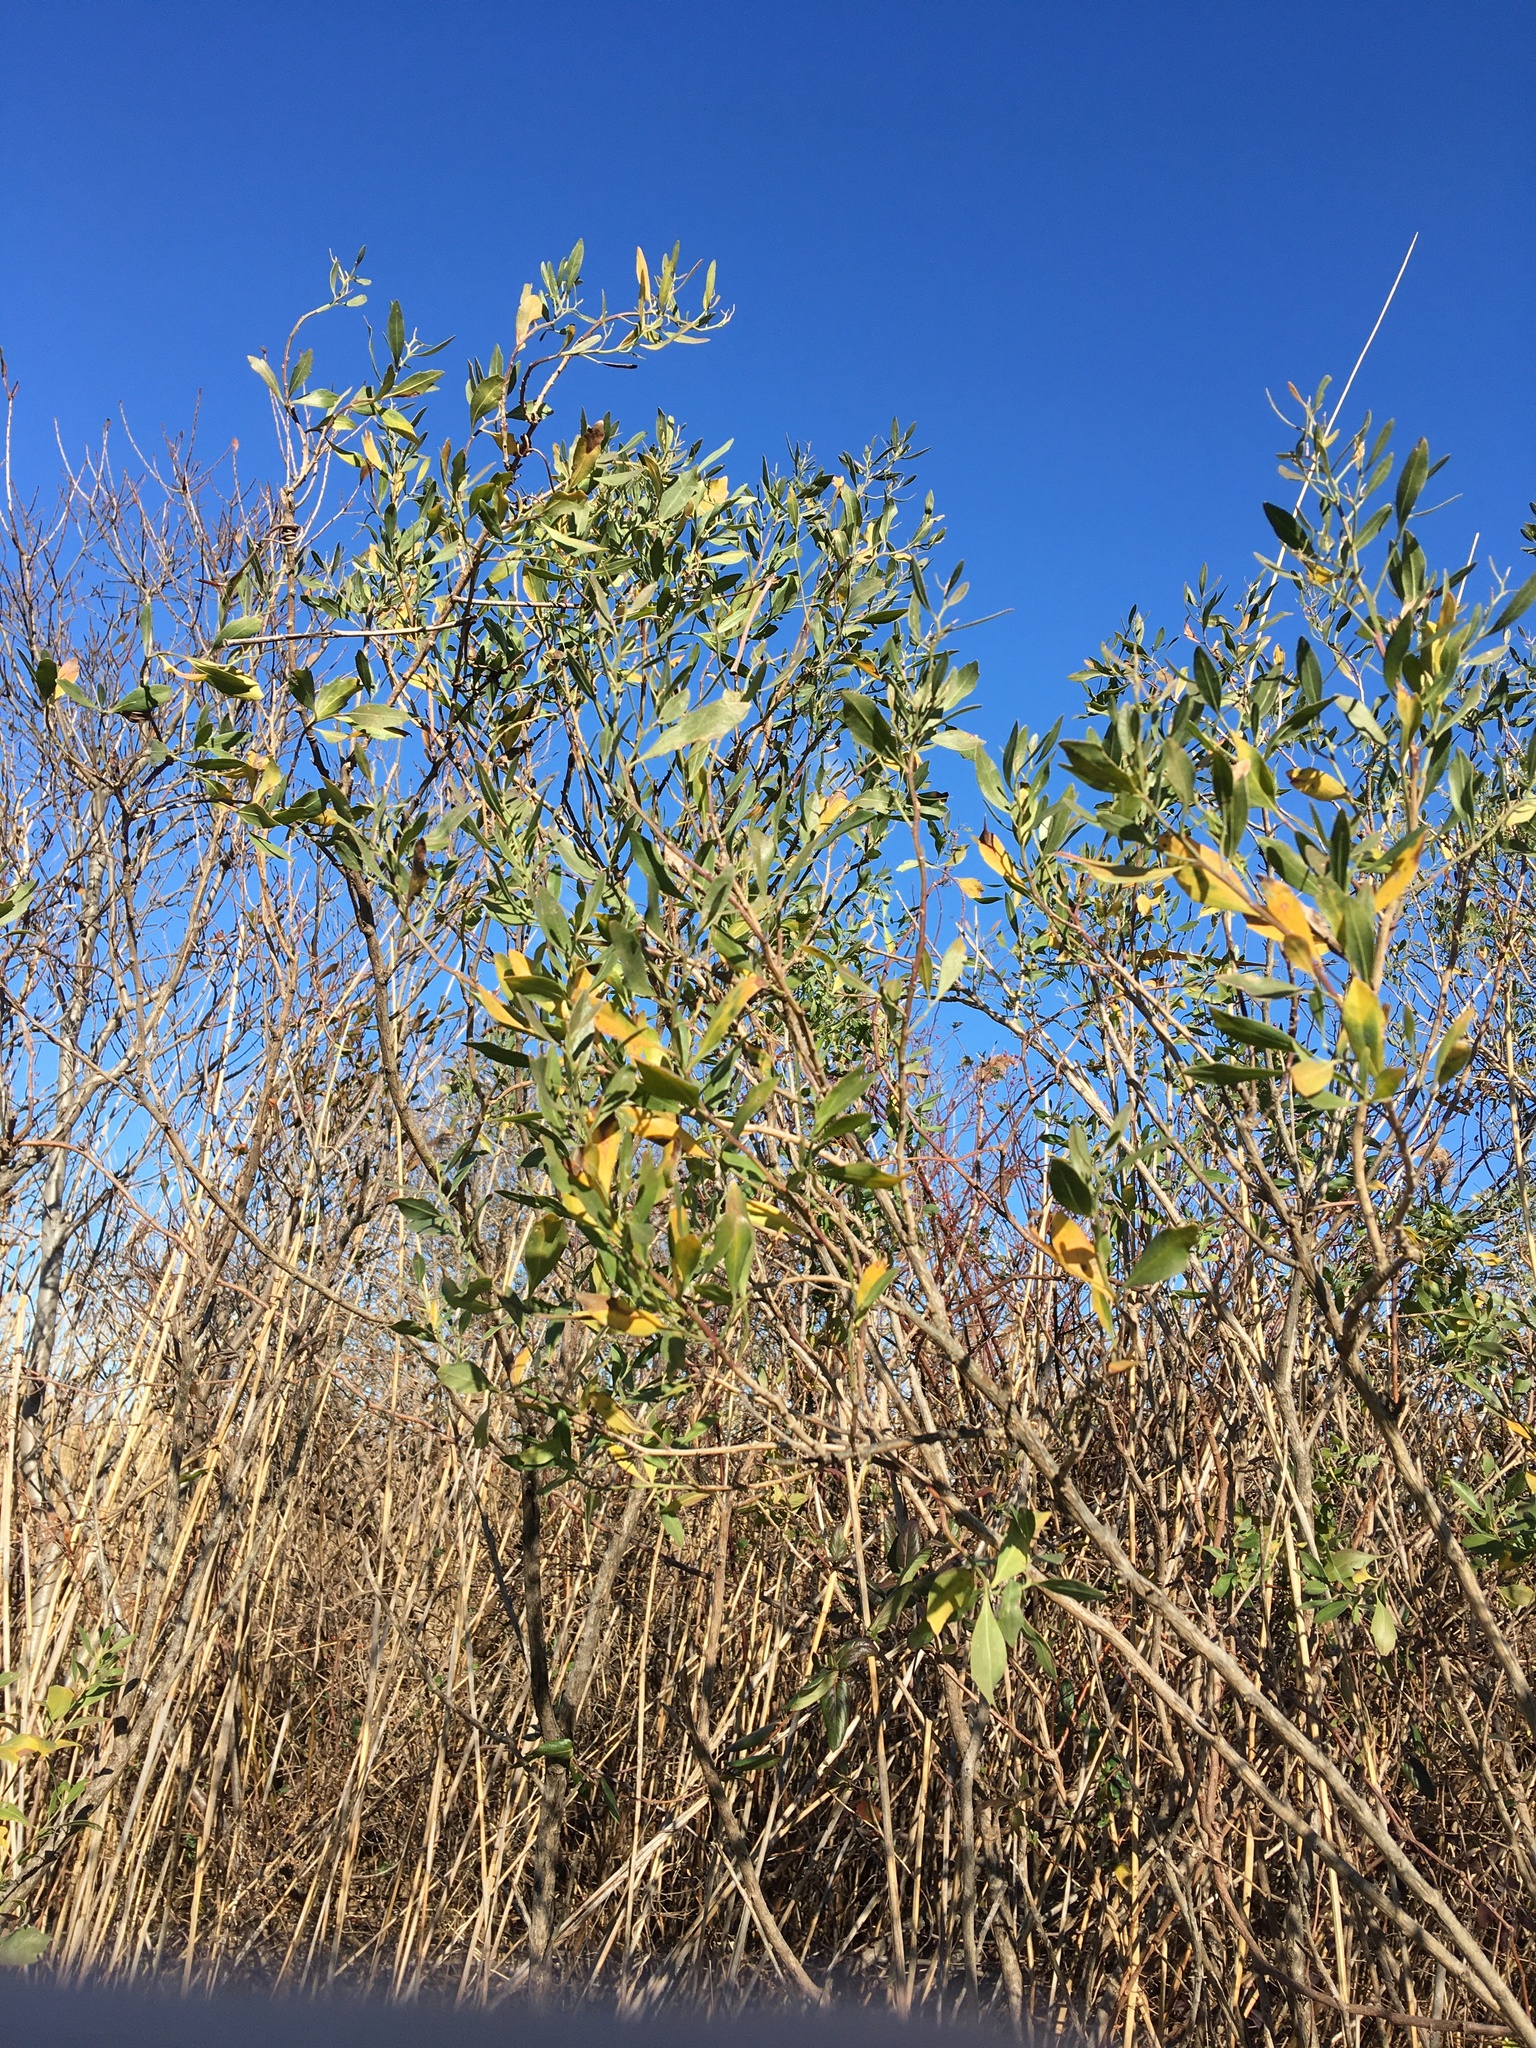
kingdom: Plantae
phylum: Tracheophyta
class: Magnoliopsida
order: Asterales
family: Asteraceae
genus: Baccharis
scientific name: Baccharis halimifolia
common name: Eastern baccharis
